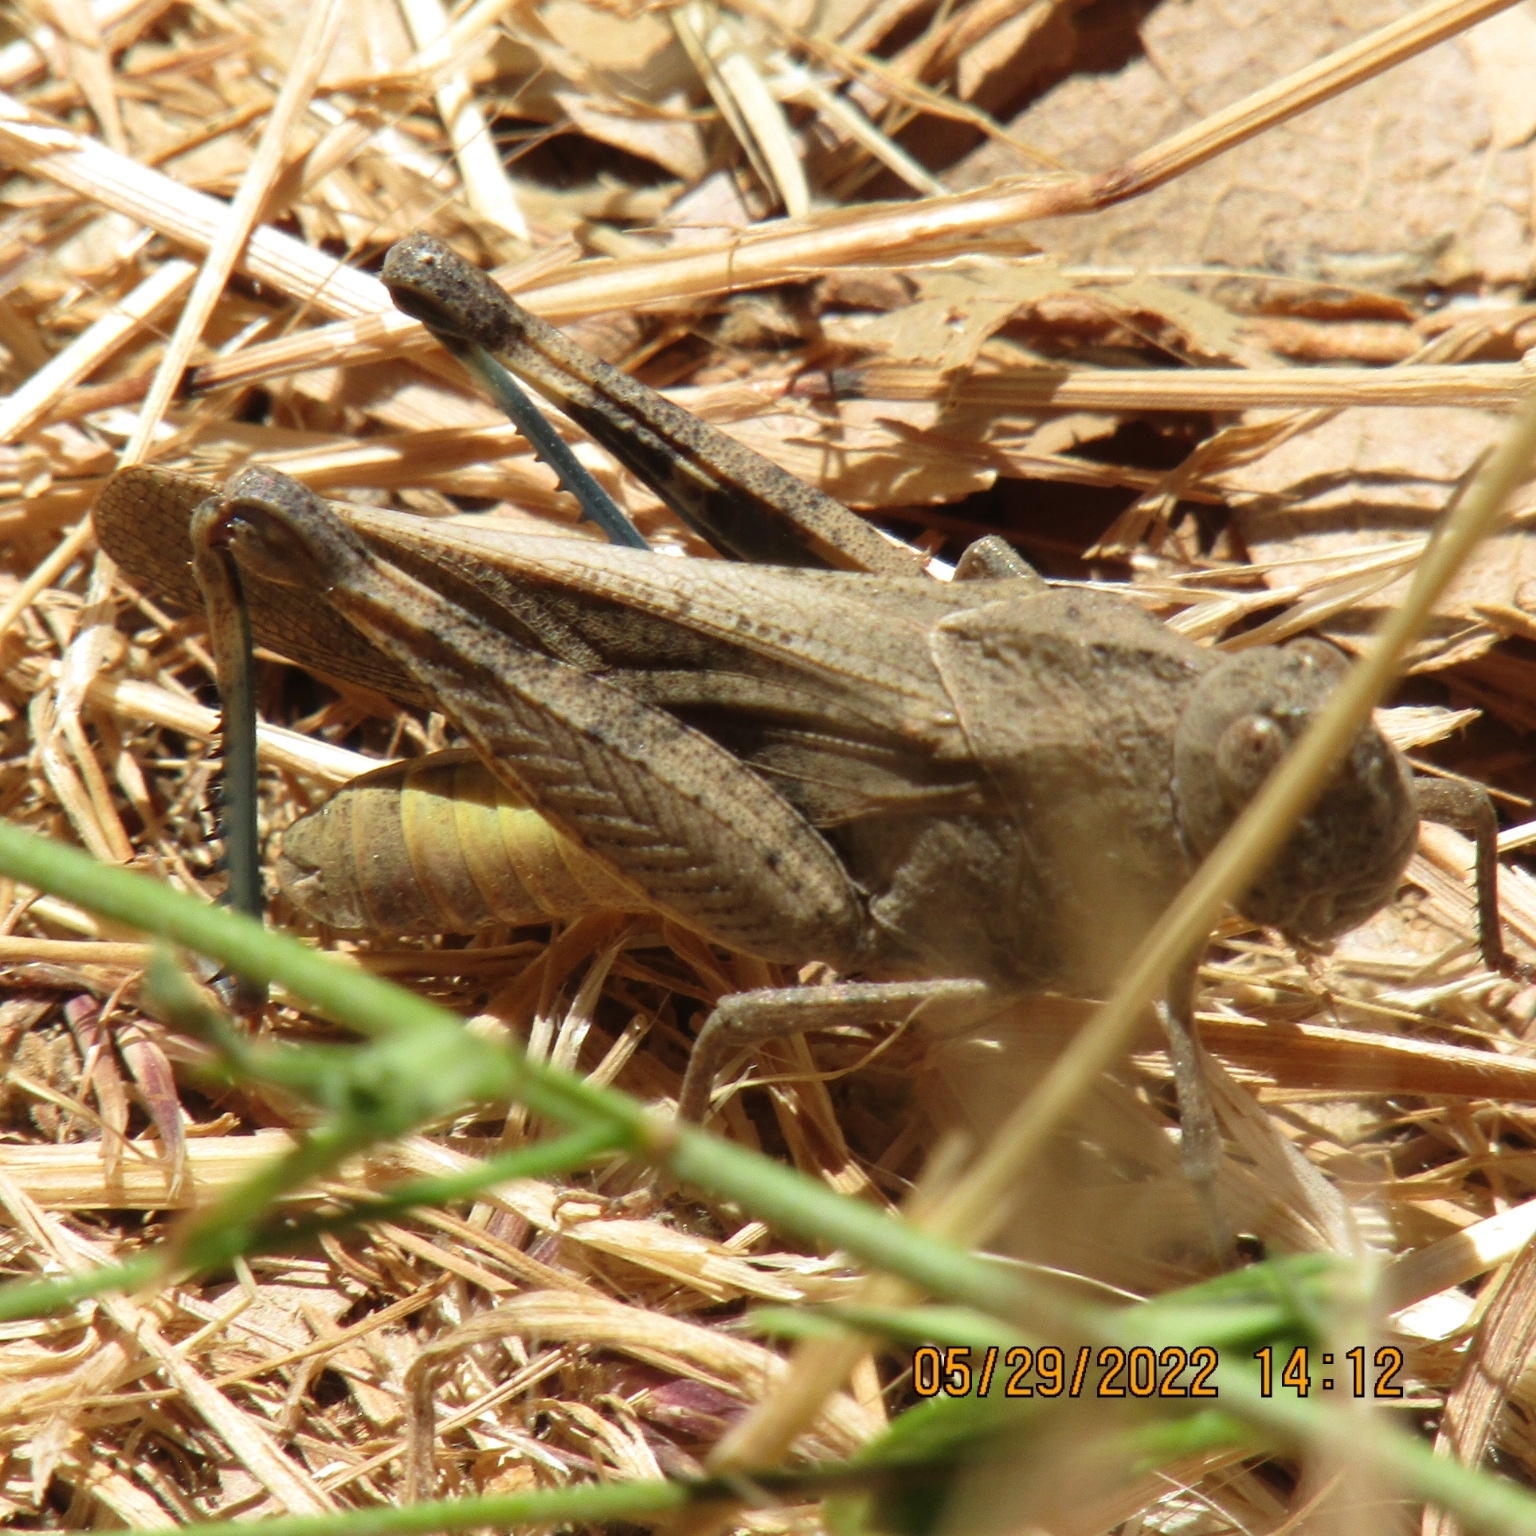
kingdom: Animalia
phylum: Arthropoda
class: Insecta
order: Orthoptera
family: Acrididae
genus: Arphia
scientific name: Arphia ramona
